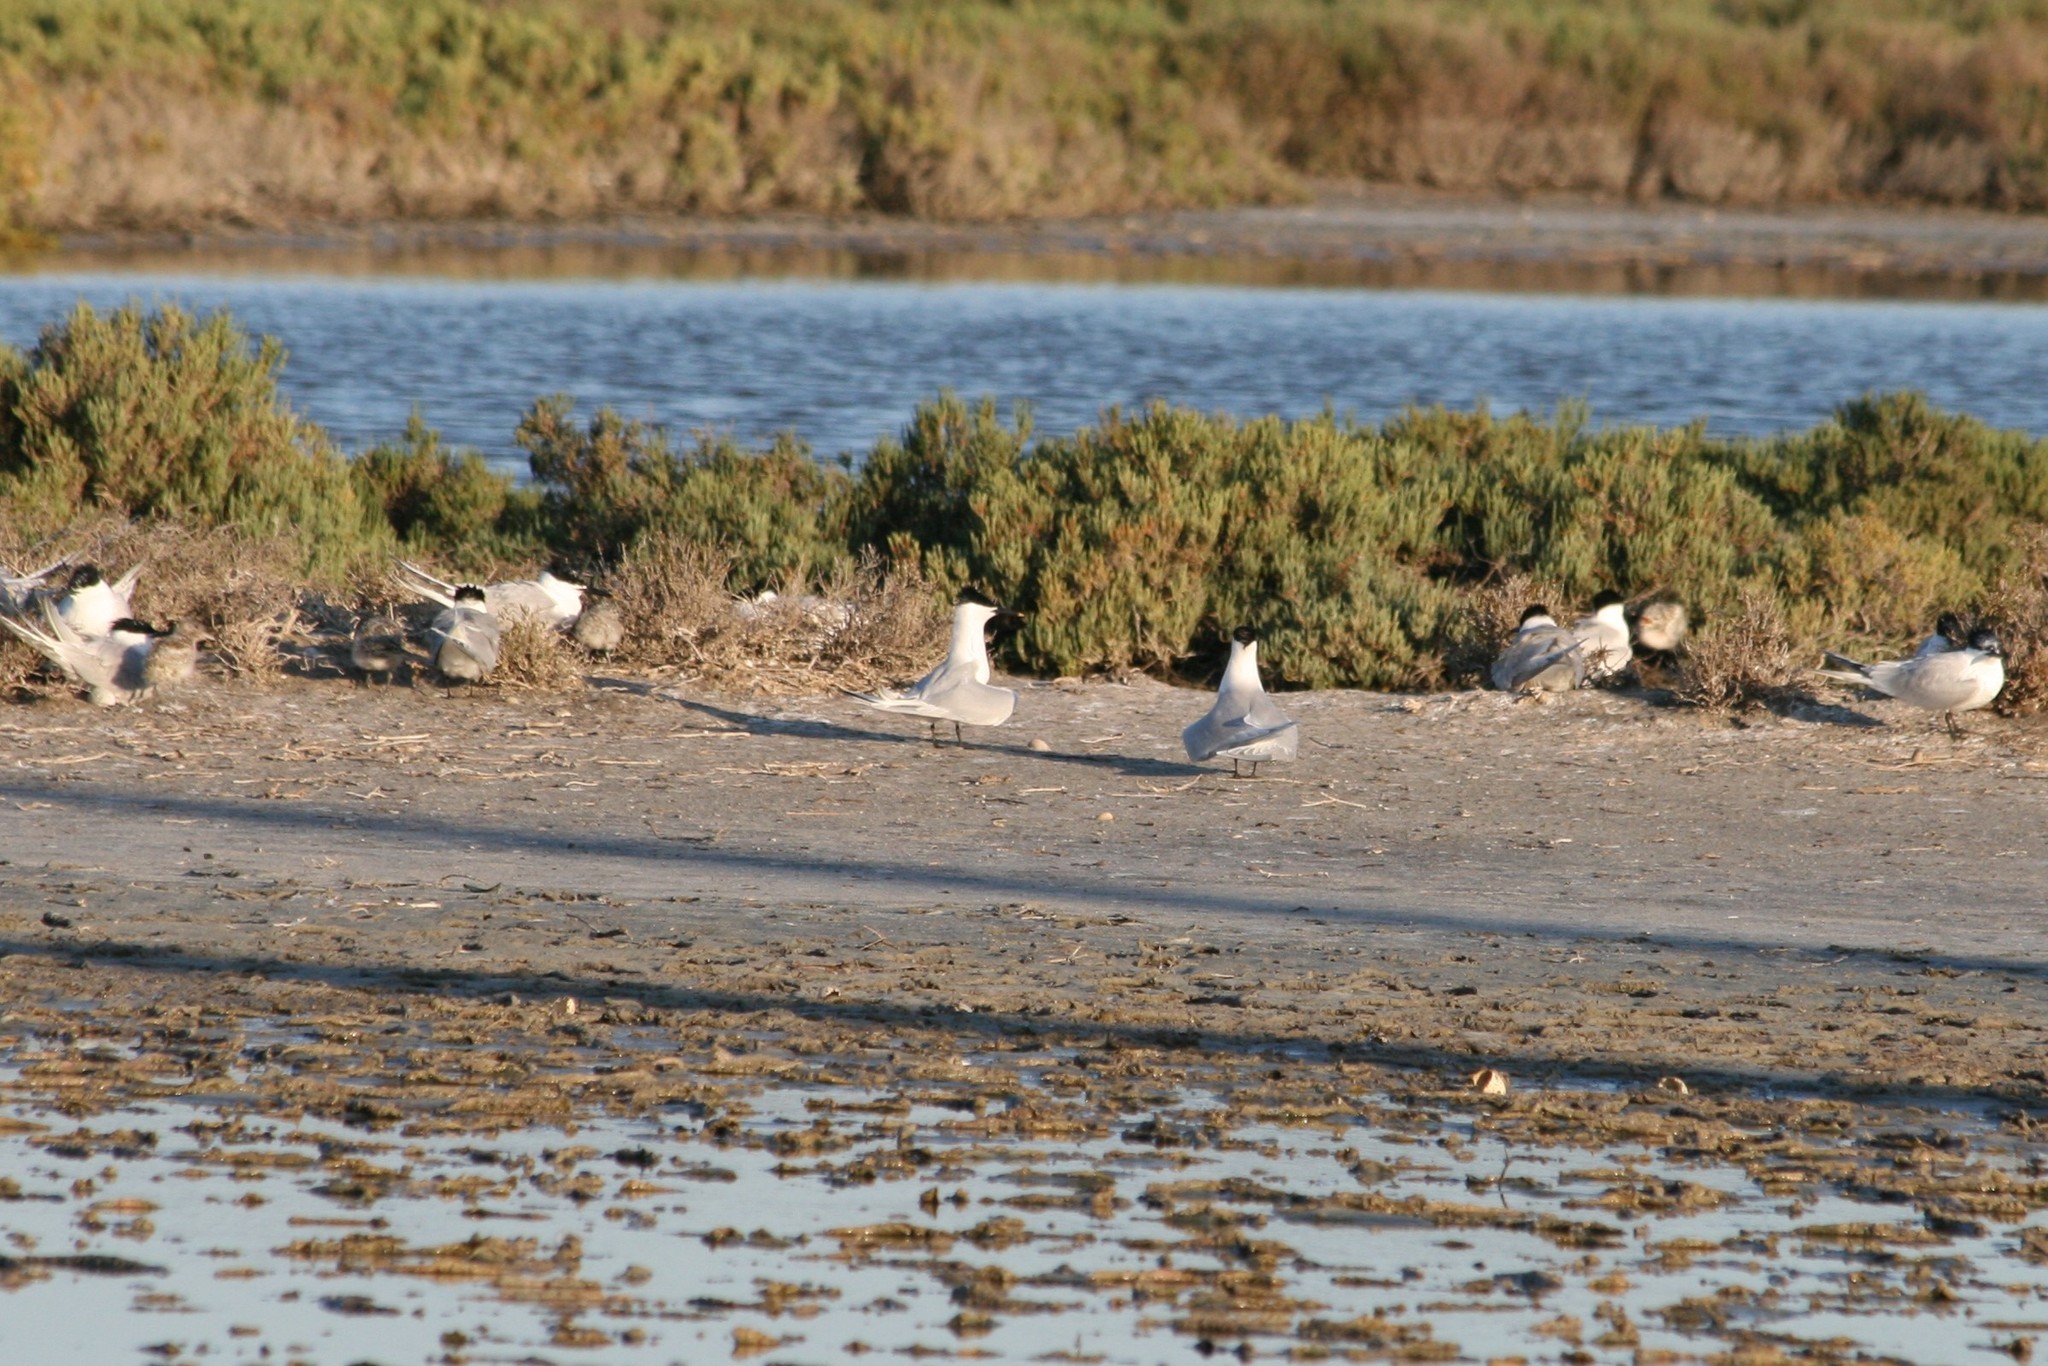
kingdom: Animalia
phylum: Chordata
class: Aves
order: Charadriiformes
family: Laridae
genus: Thalasseus
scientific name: Thalasseus sandvicensis
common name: Sandwich tern
